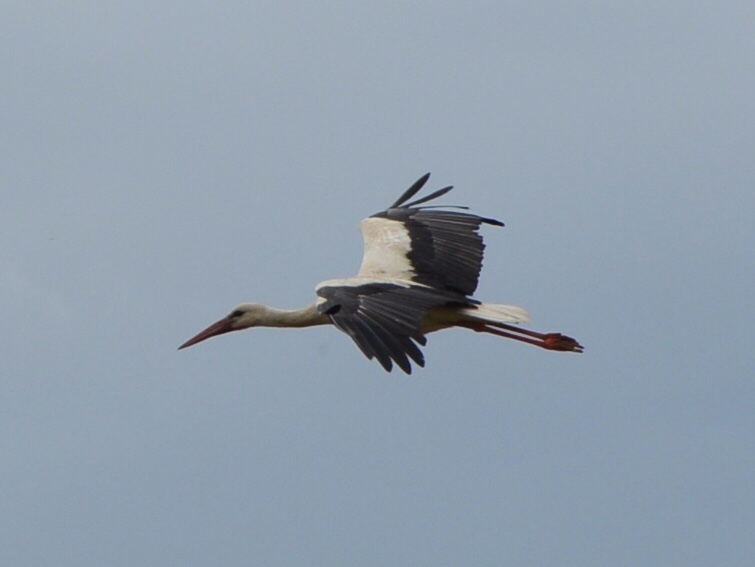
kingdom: Animalia
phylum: Chordata
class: Aves
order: Ciconiiformes
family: Ciconiidae
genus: Ciconia
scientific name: Ciconia ciconia
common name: White stork
